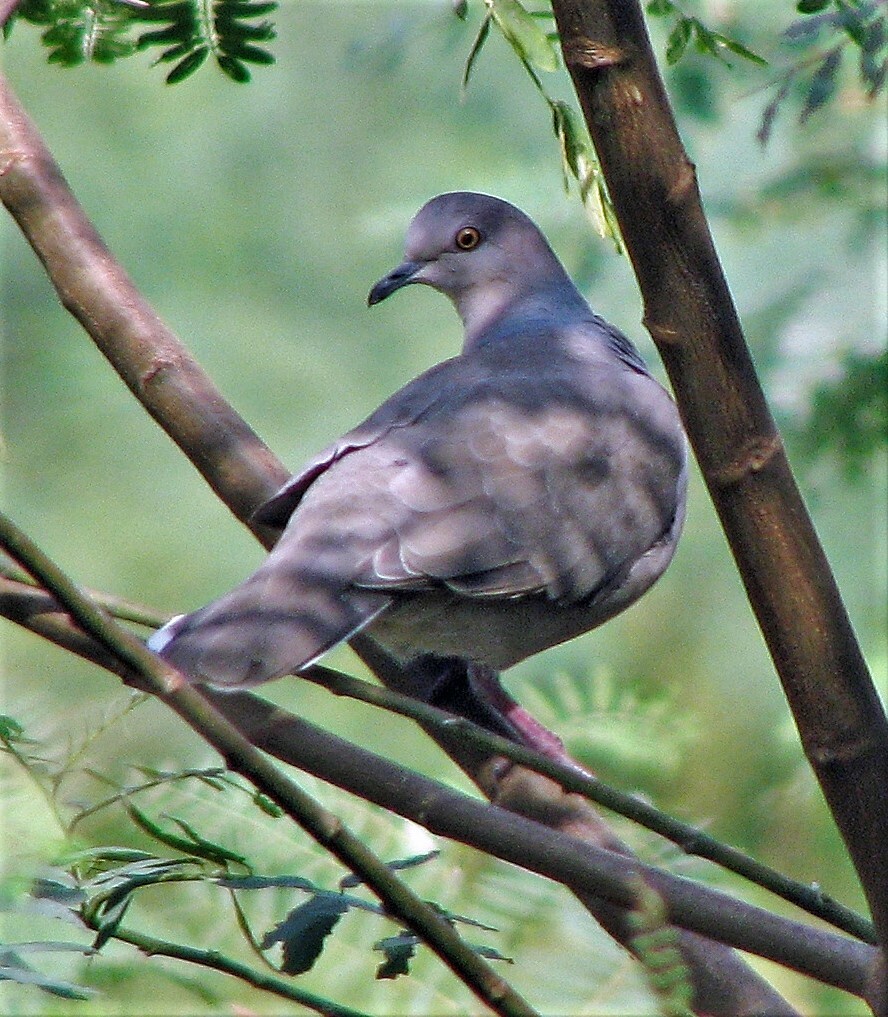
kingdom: Animalia
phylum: Chordata
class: Aves
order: Columbiformes
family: Columbidae
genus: Leptotila
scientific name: Leptotila verreauxi
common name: White-tipped dove
